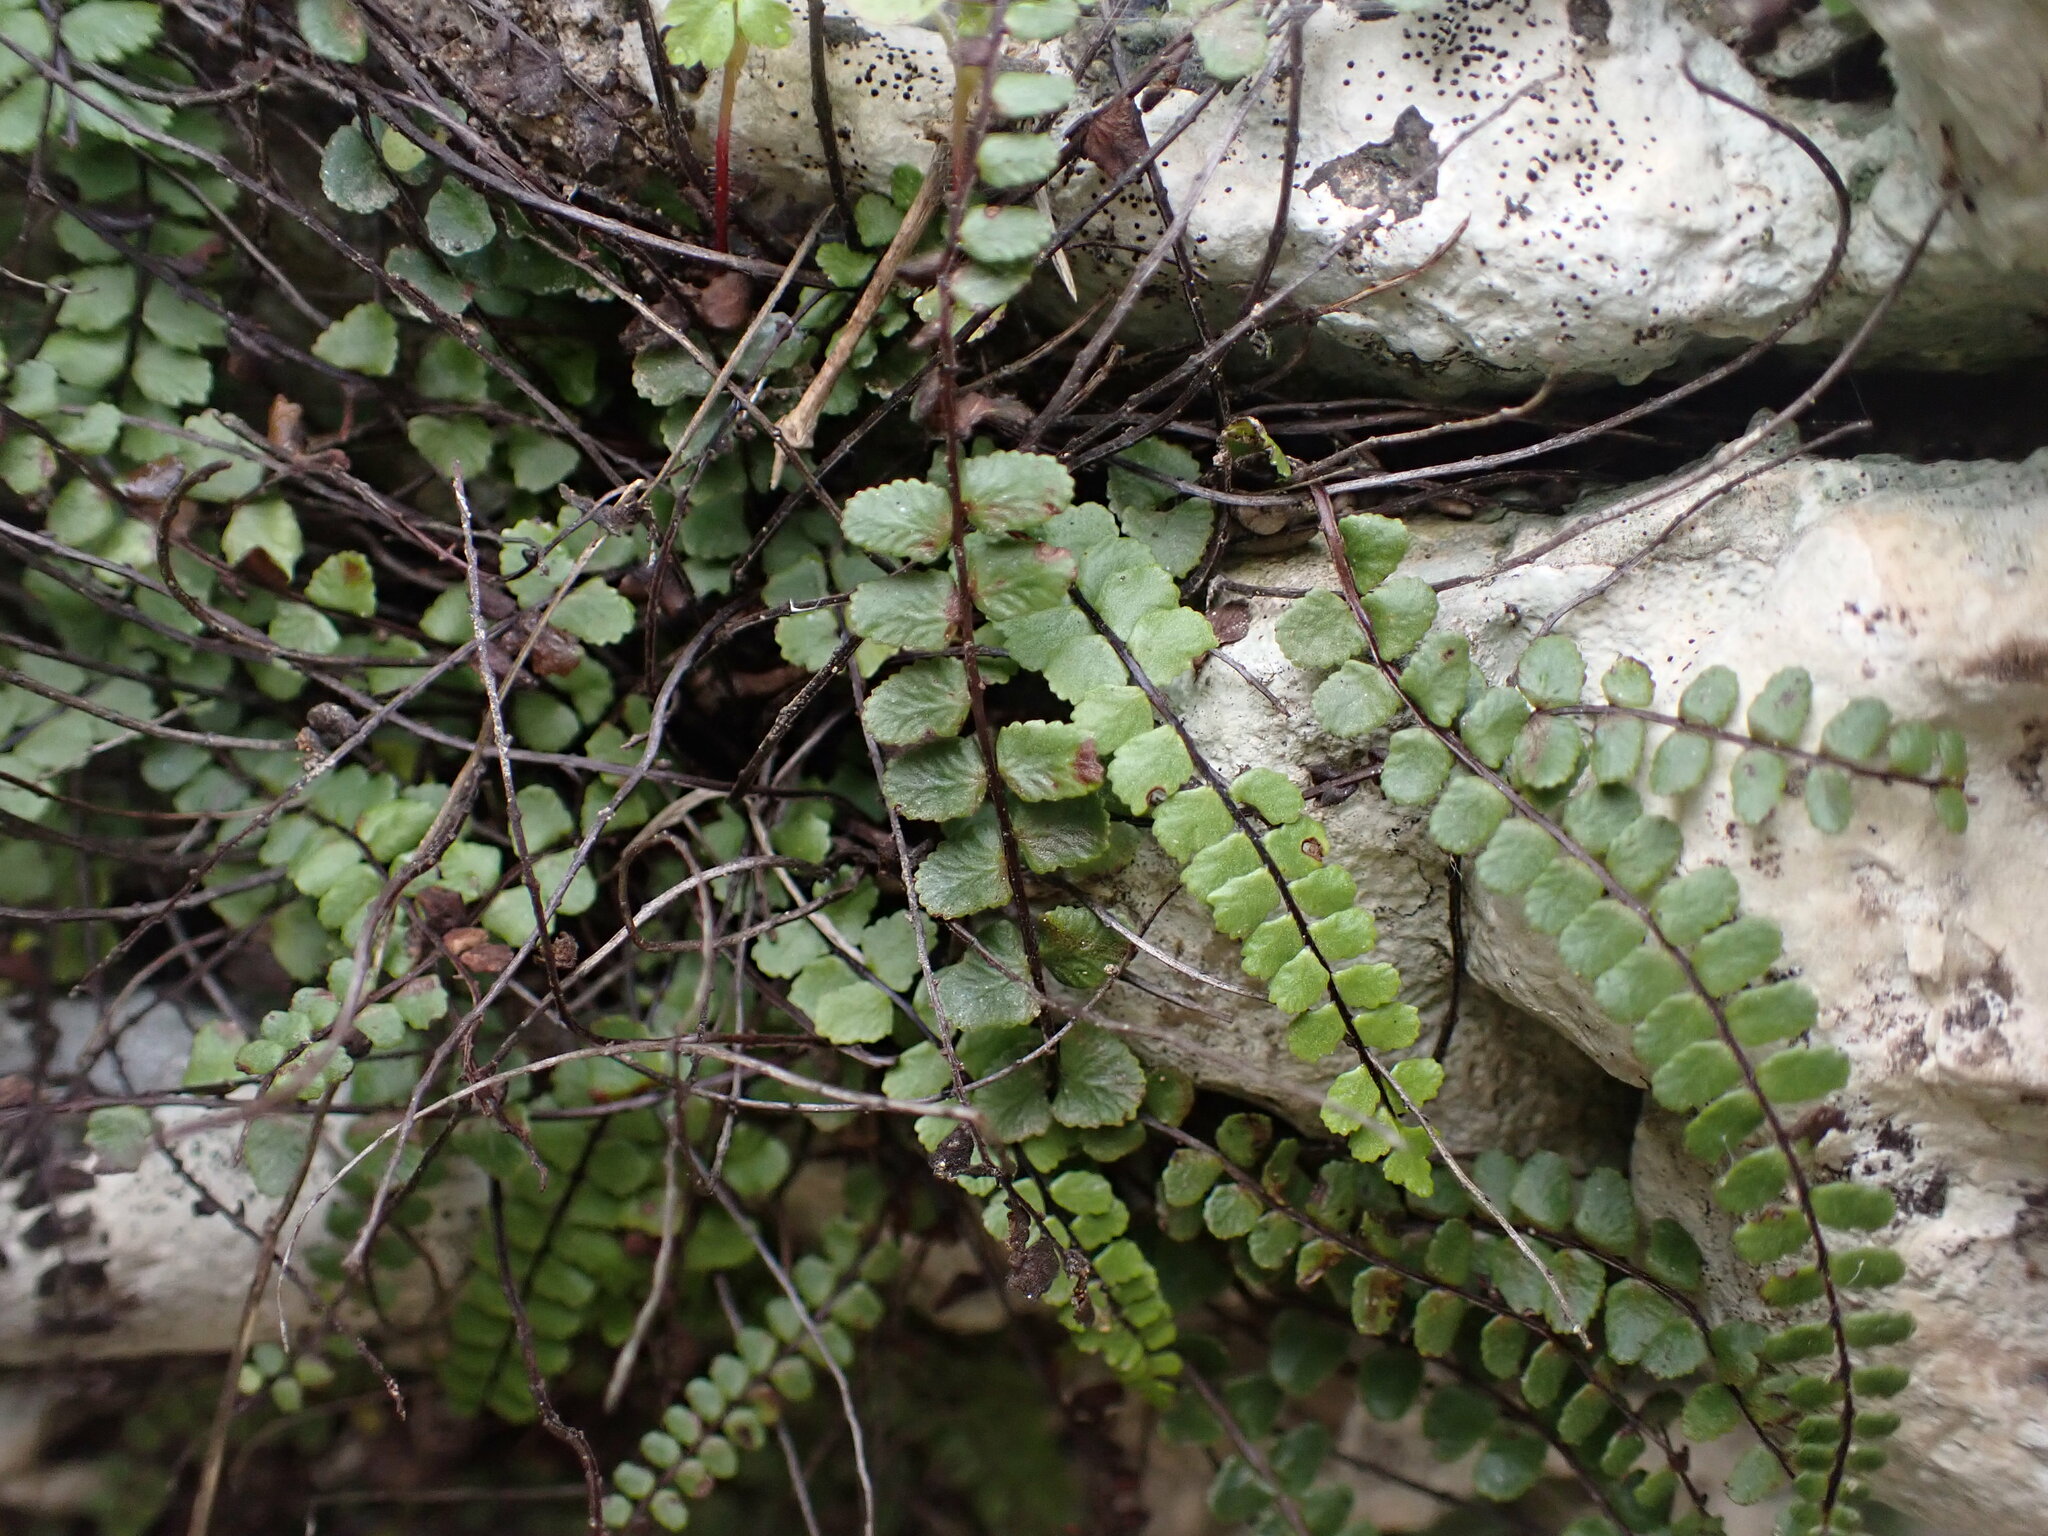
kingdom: Plantae
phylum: Tracheophyta
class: Polypodiopsida
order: Polypodiales
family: Aspleniaceae
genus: Asplenium
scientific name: Asplenium trichomanes
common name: Maidenhair spleenwort
